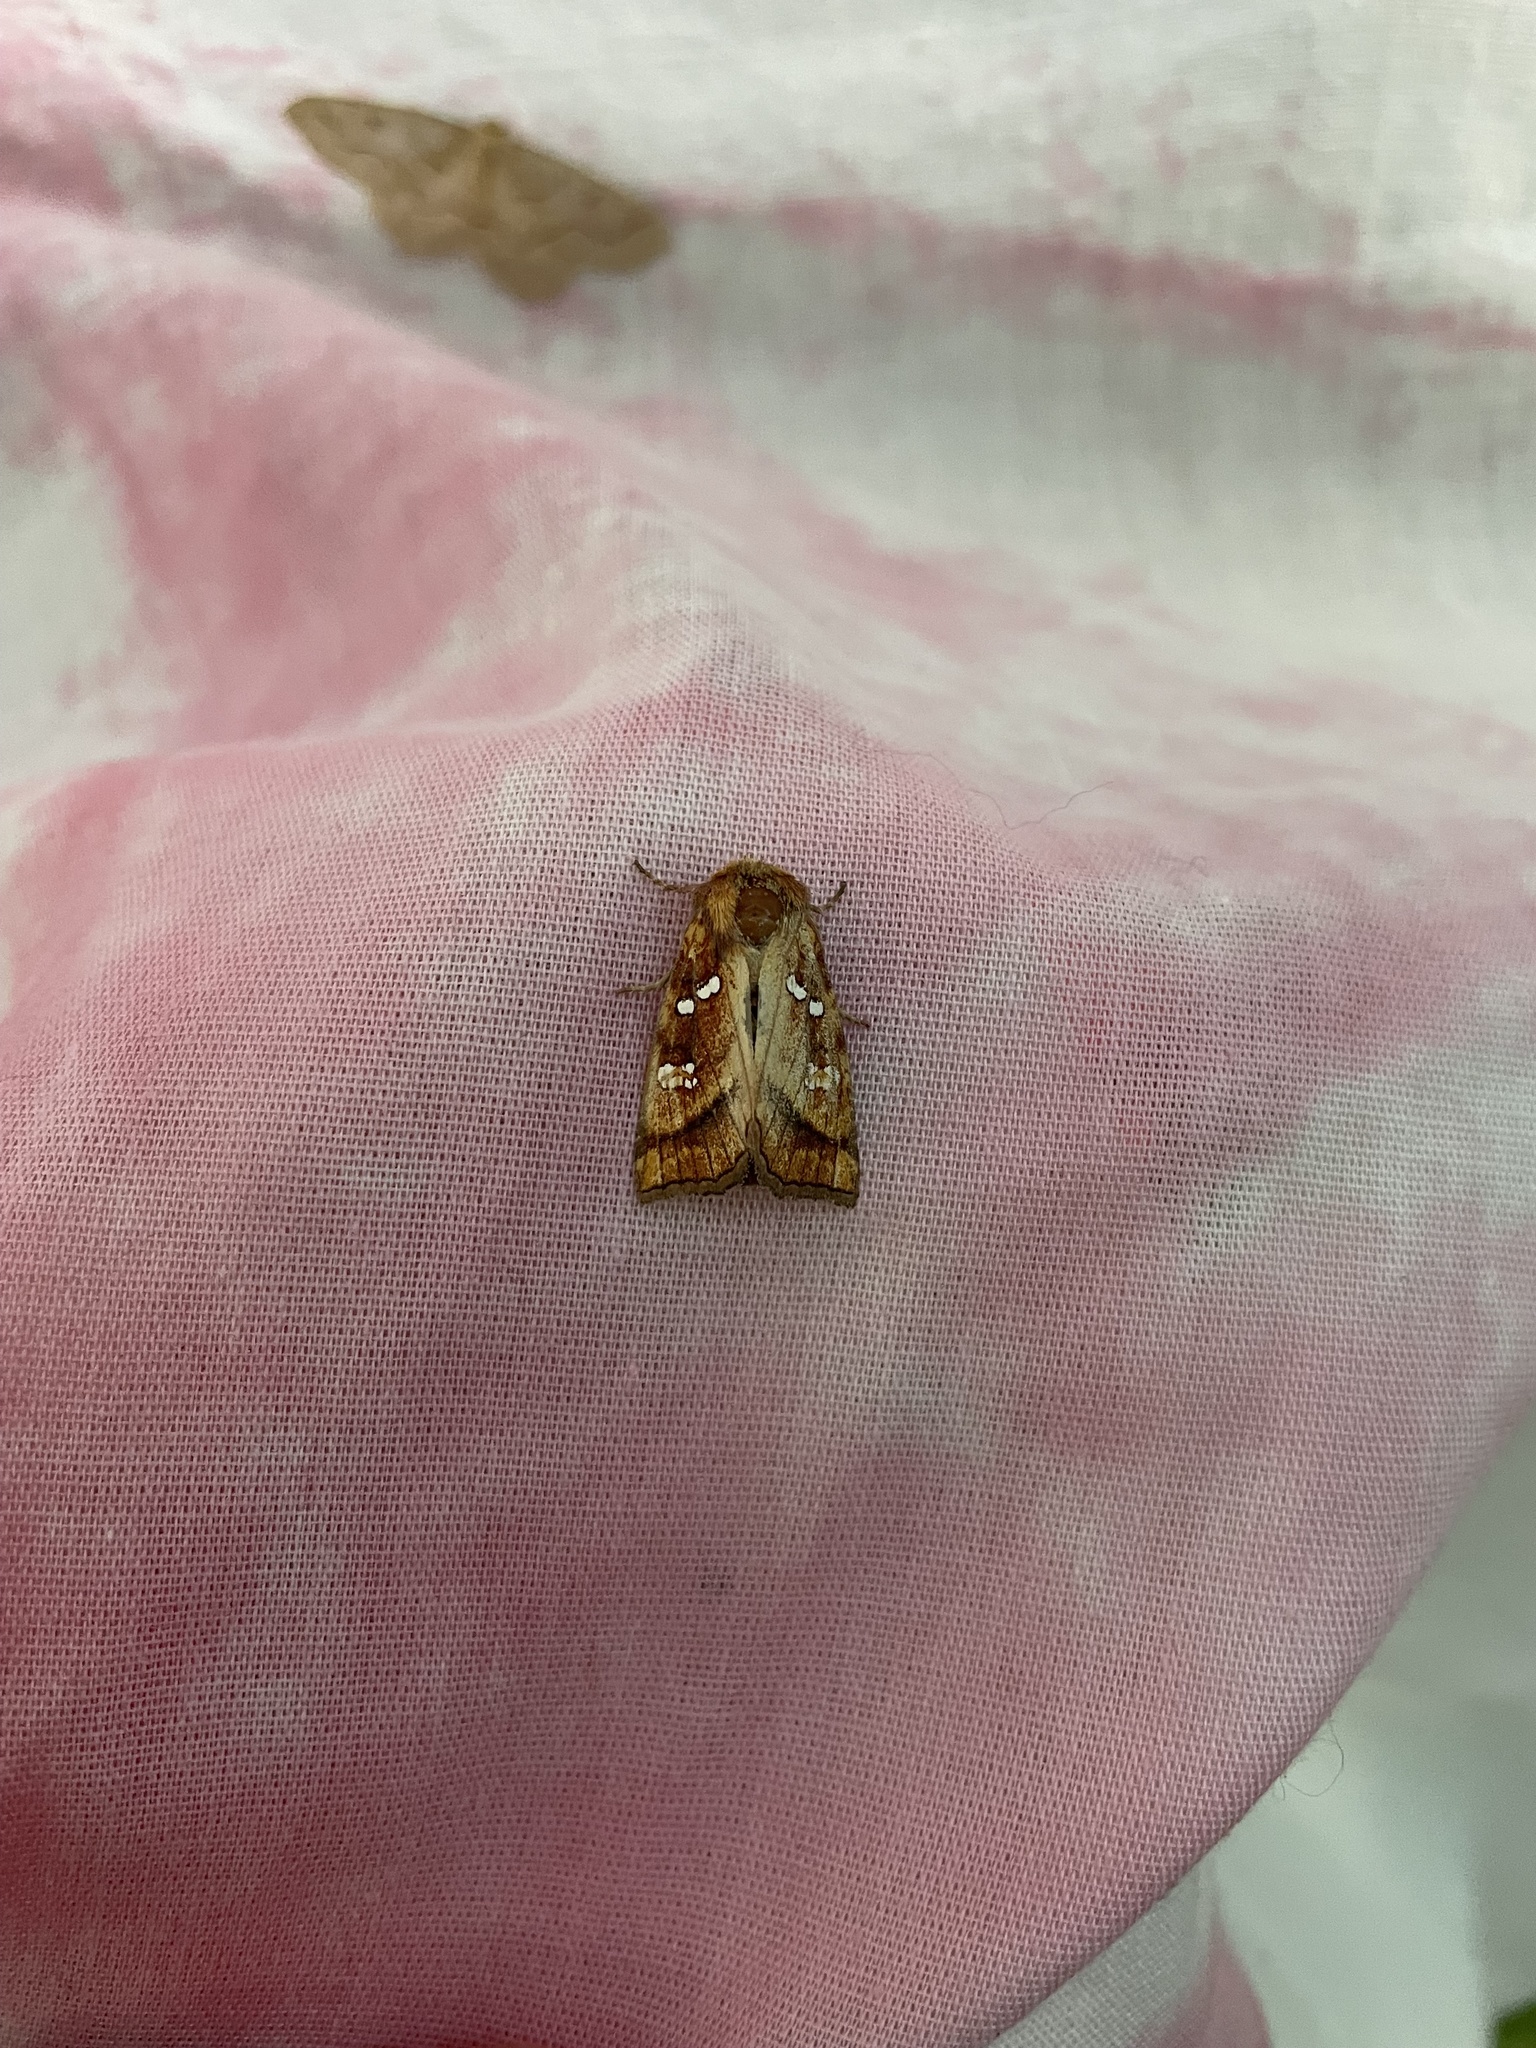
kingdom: Animalia
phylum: Arthropoda
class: Insecta
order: Lepidoptera
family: Noctuidae
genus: Papaipema
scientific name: Papaipema pterisii
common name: Bracken borer moth
